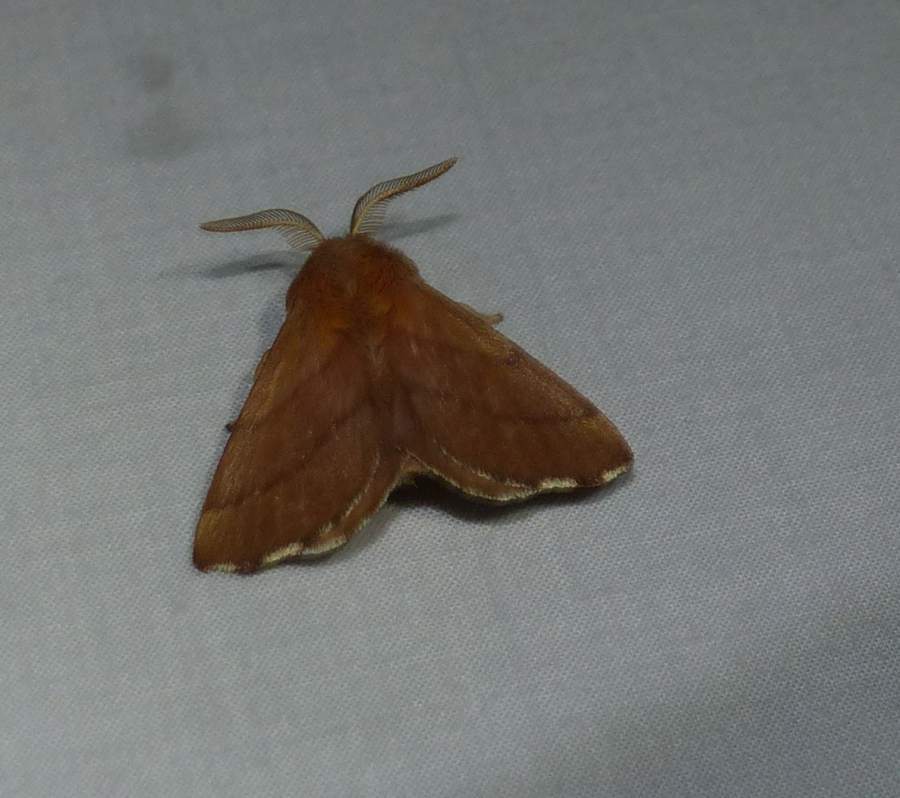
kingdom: Animalia
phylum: Arthropoda
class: Insecta
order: Lepidoptera
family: Lasiocampidae
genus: Malacosoma
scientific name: Malacosoma disstria
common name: Forest tent caterpillar
